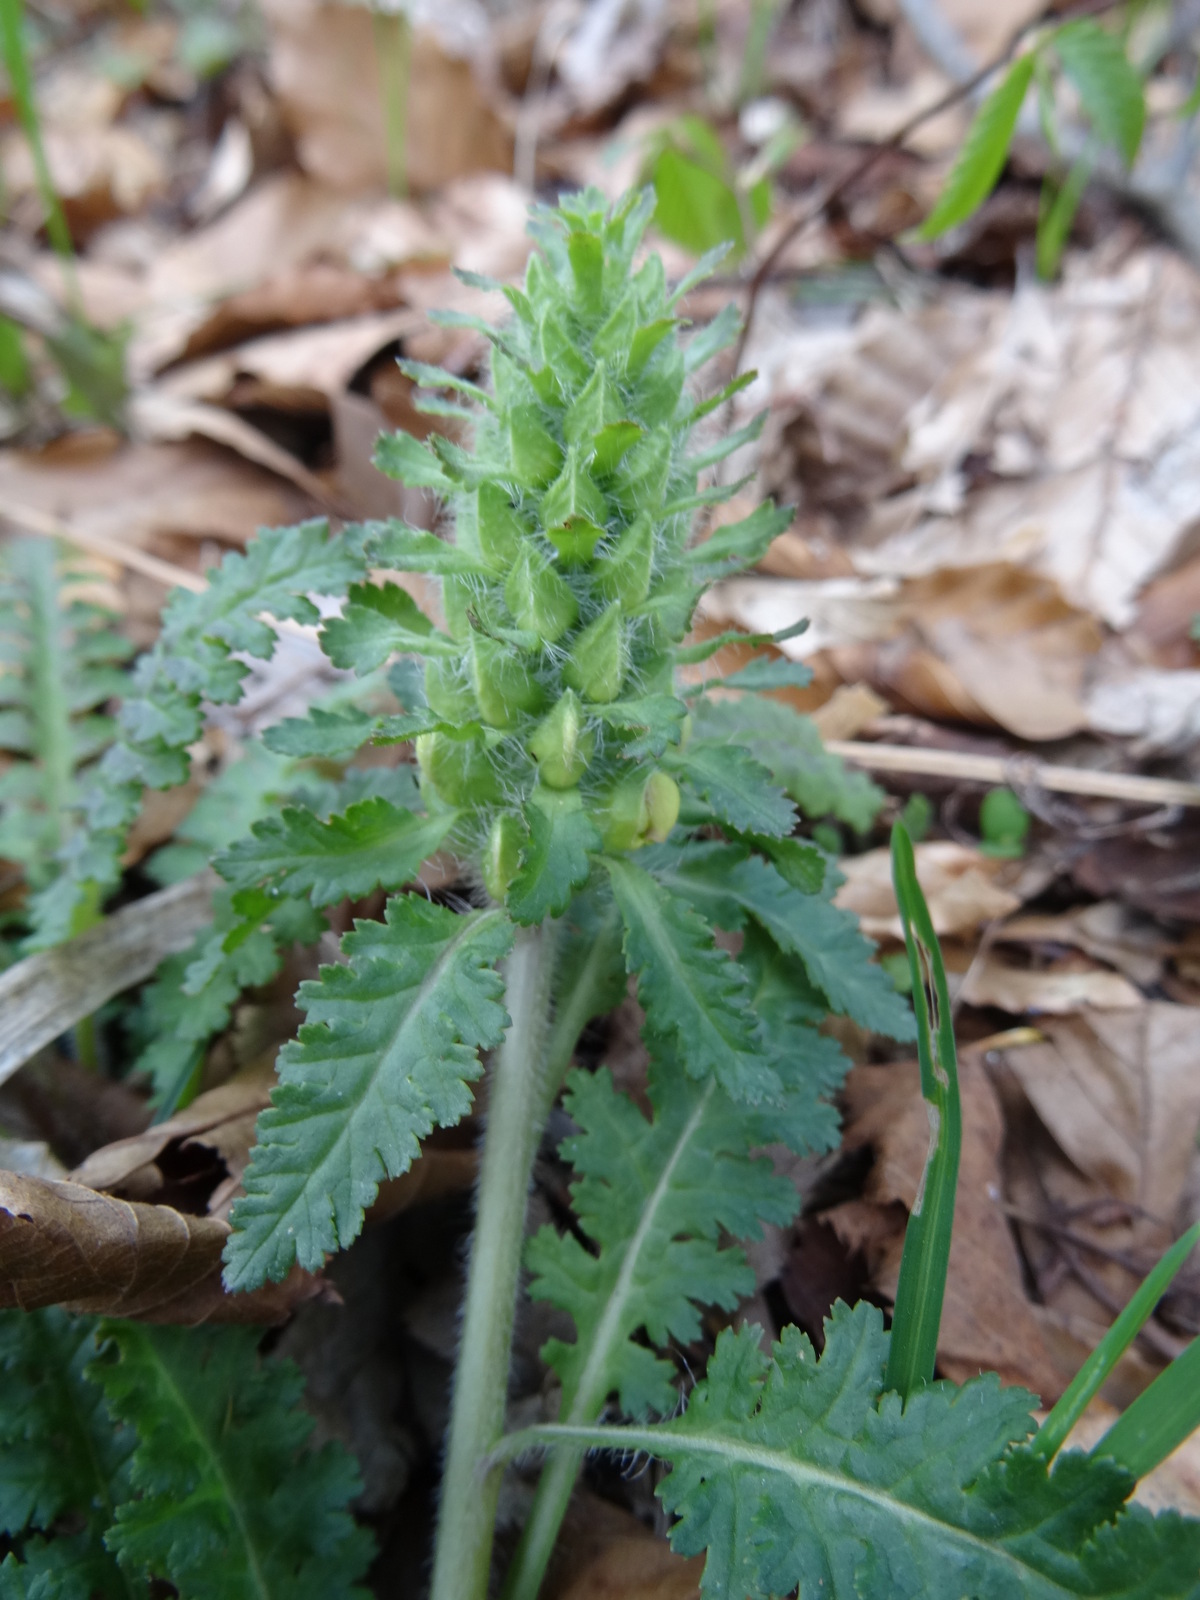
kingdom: Plantae
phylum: Tracheophyta
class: Magnoliopsida
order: Lamiales
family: Orobanchaceae
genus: Pedicularis
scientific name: Pedicularis canadensis
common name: Early lousewort
